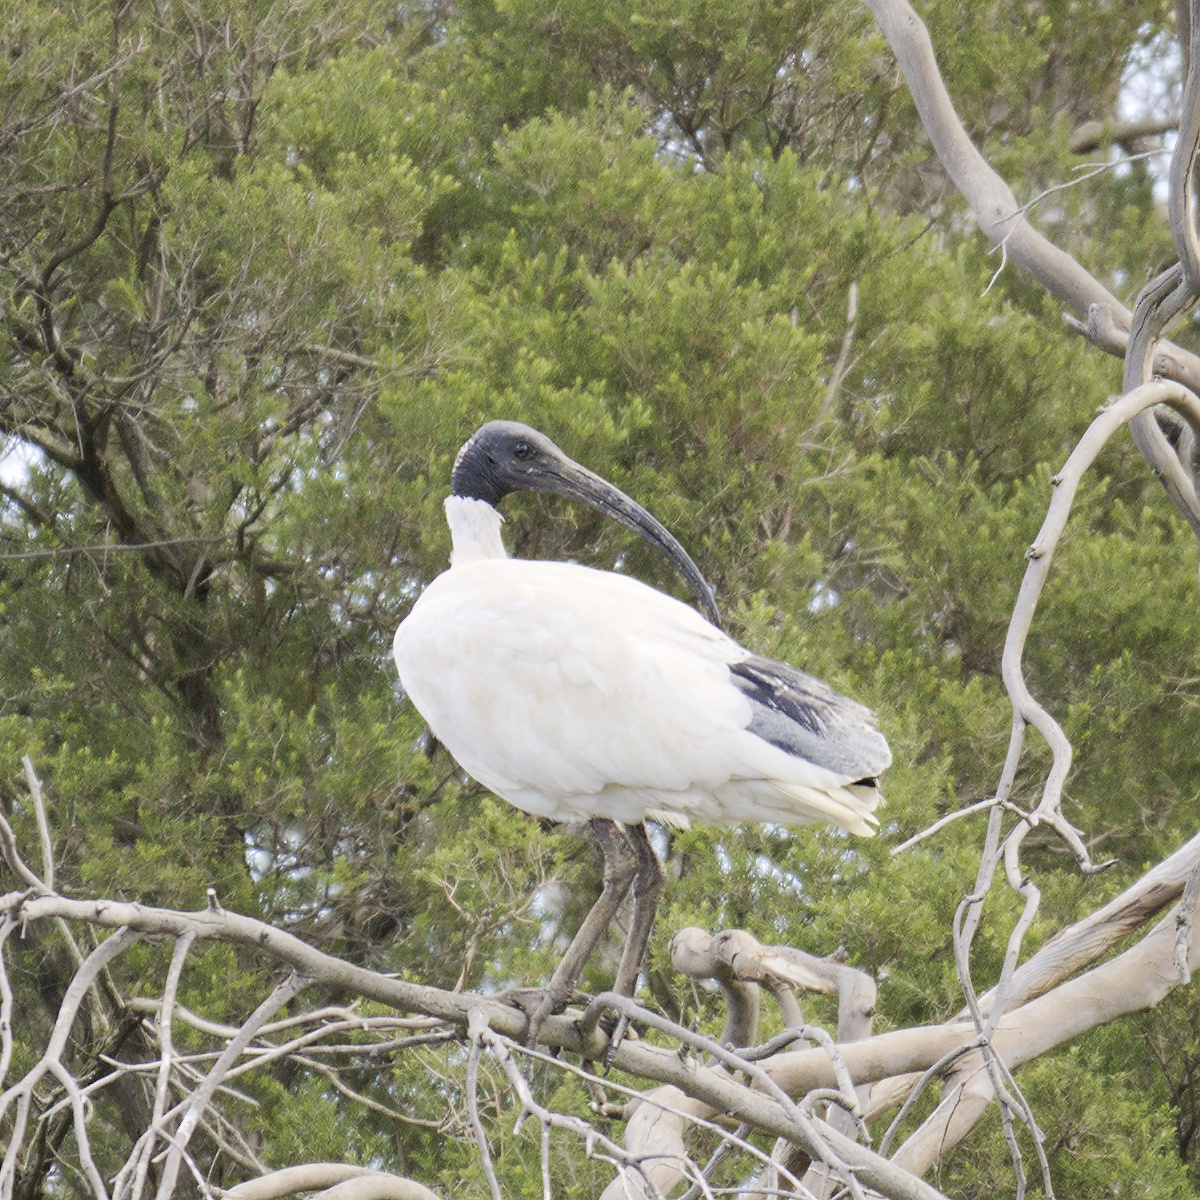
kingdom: Animalia
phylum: Chordata
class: Aves
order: Pelecaniformes
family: Threskiornithidae
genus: Threskiornis
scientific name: Threskiornis molucca
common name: Australian white ibis
